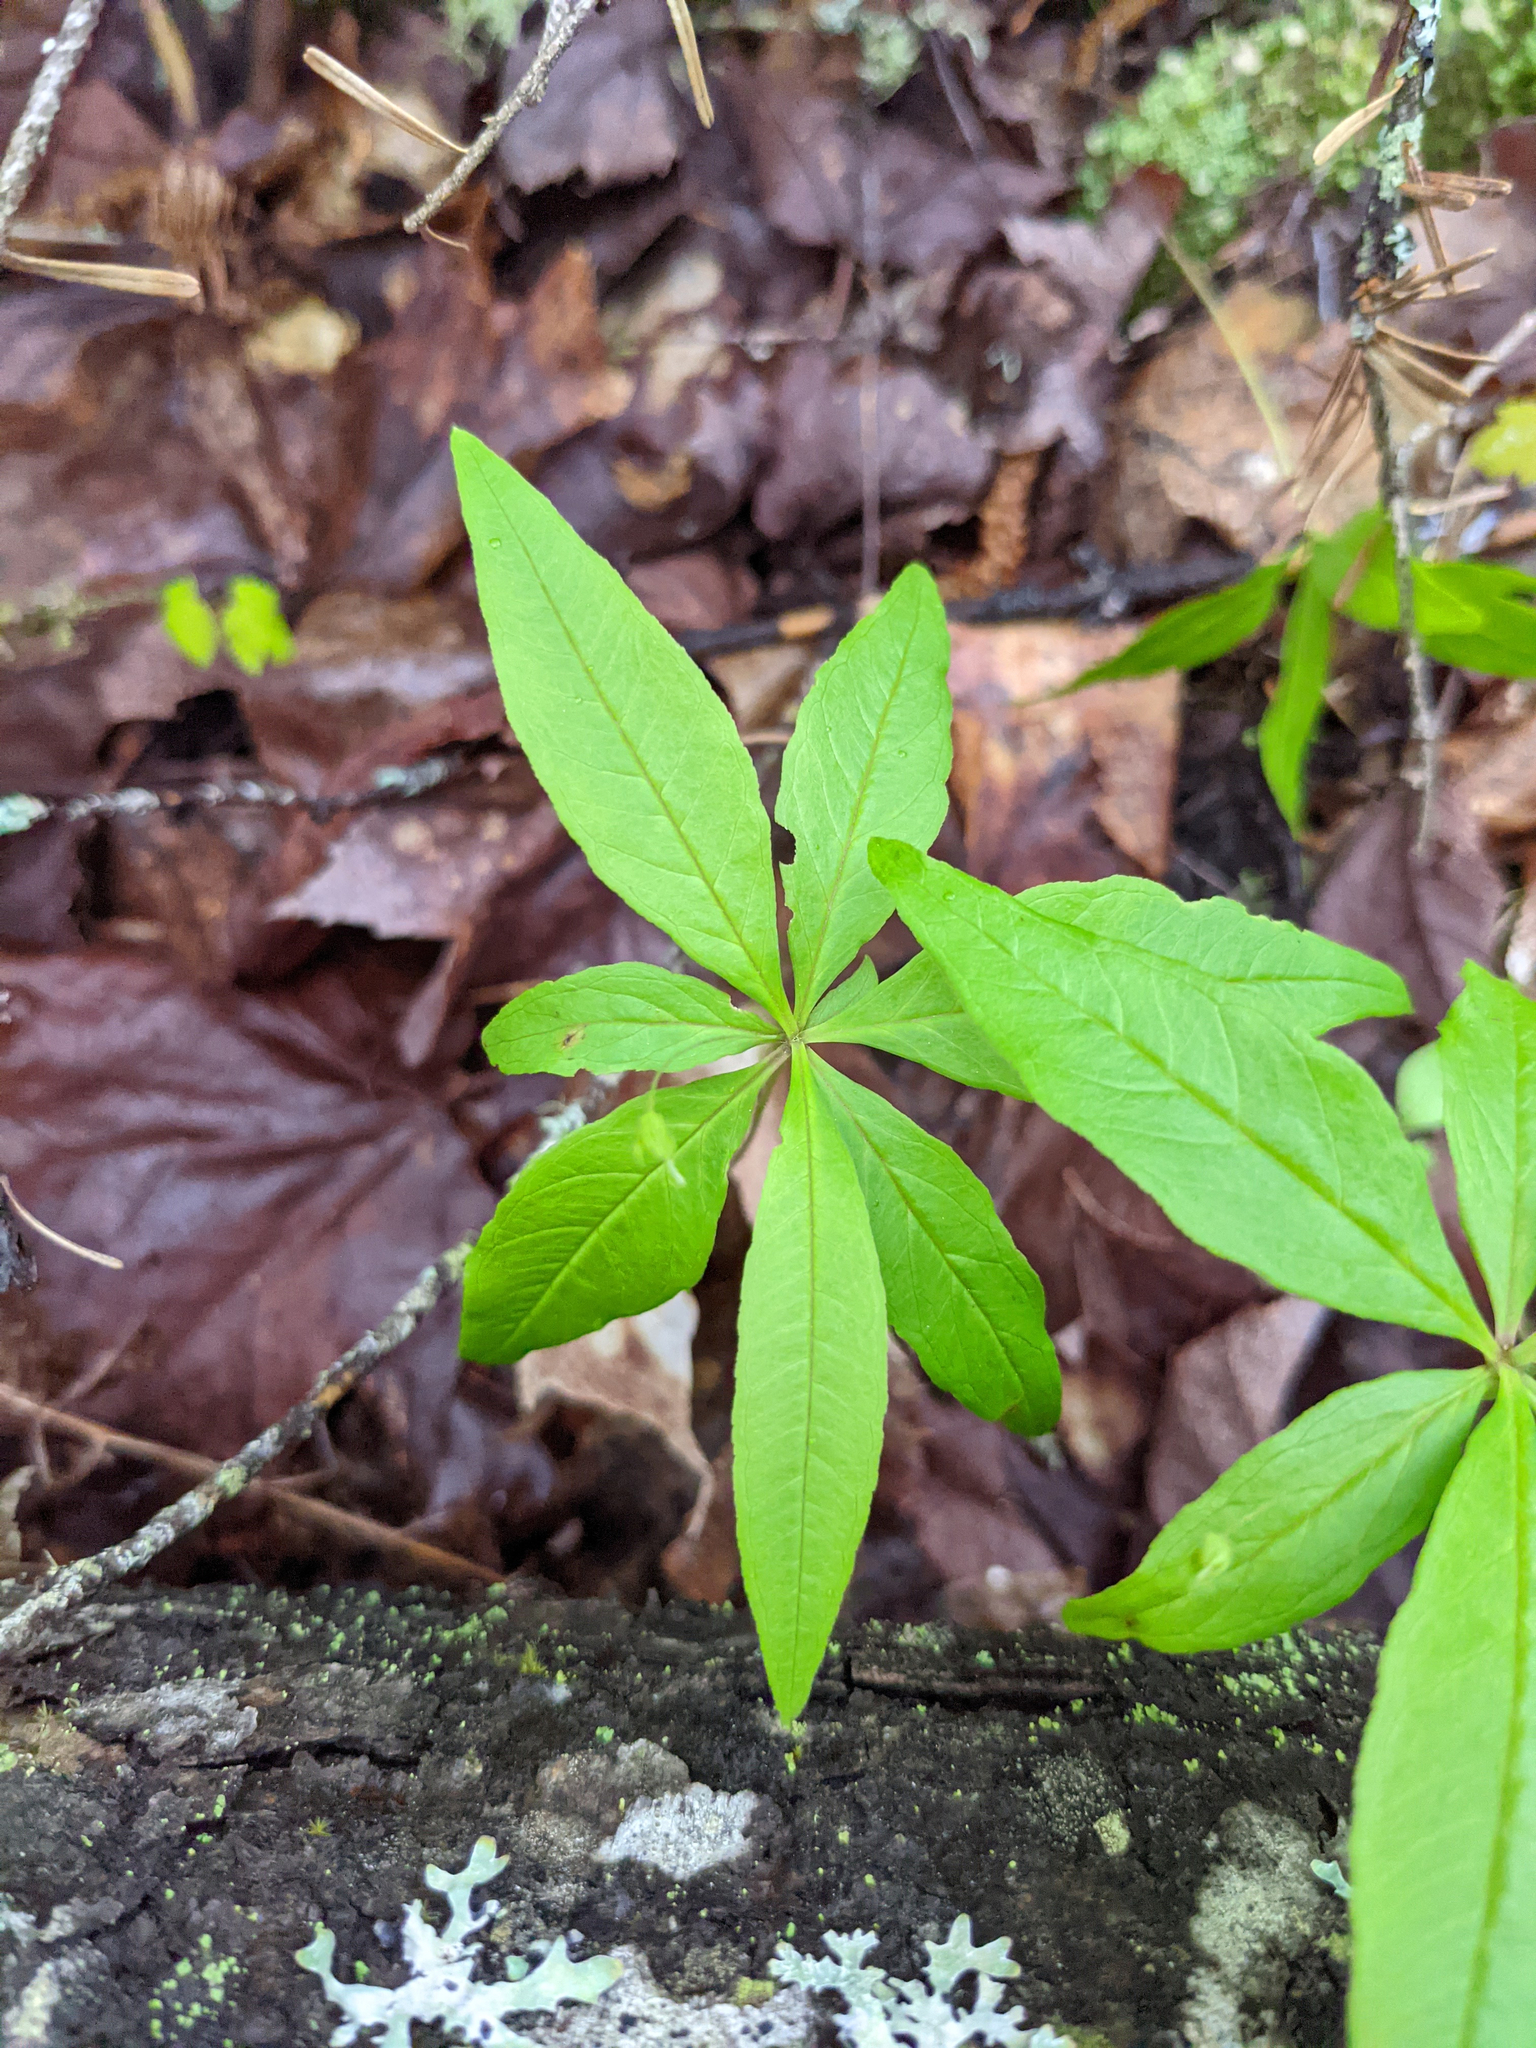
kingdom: Plantae
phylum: Tracheophyta
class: Magnoliopsida
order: Ericales
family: Primulaceae
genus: Lysimachia
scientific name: Lysimachia borealis
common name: American starflower
